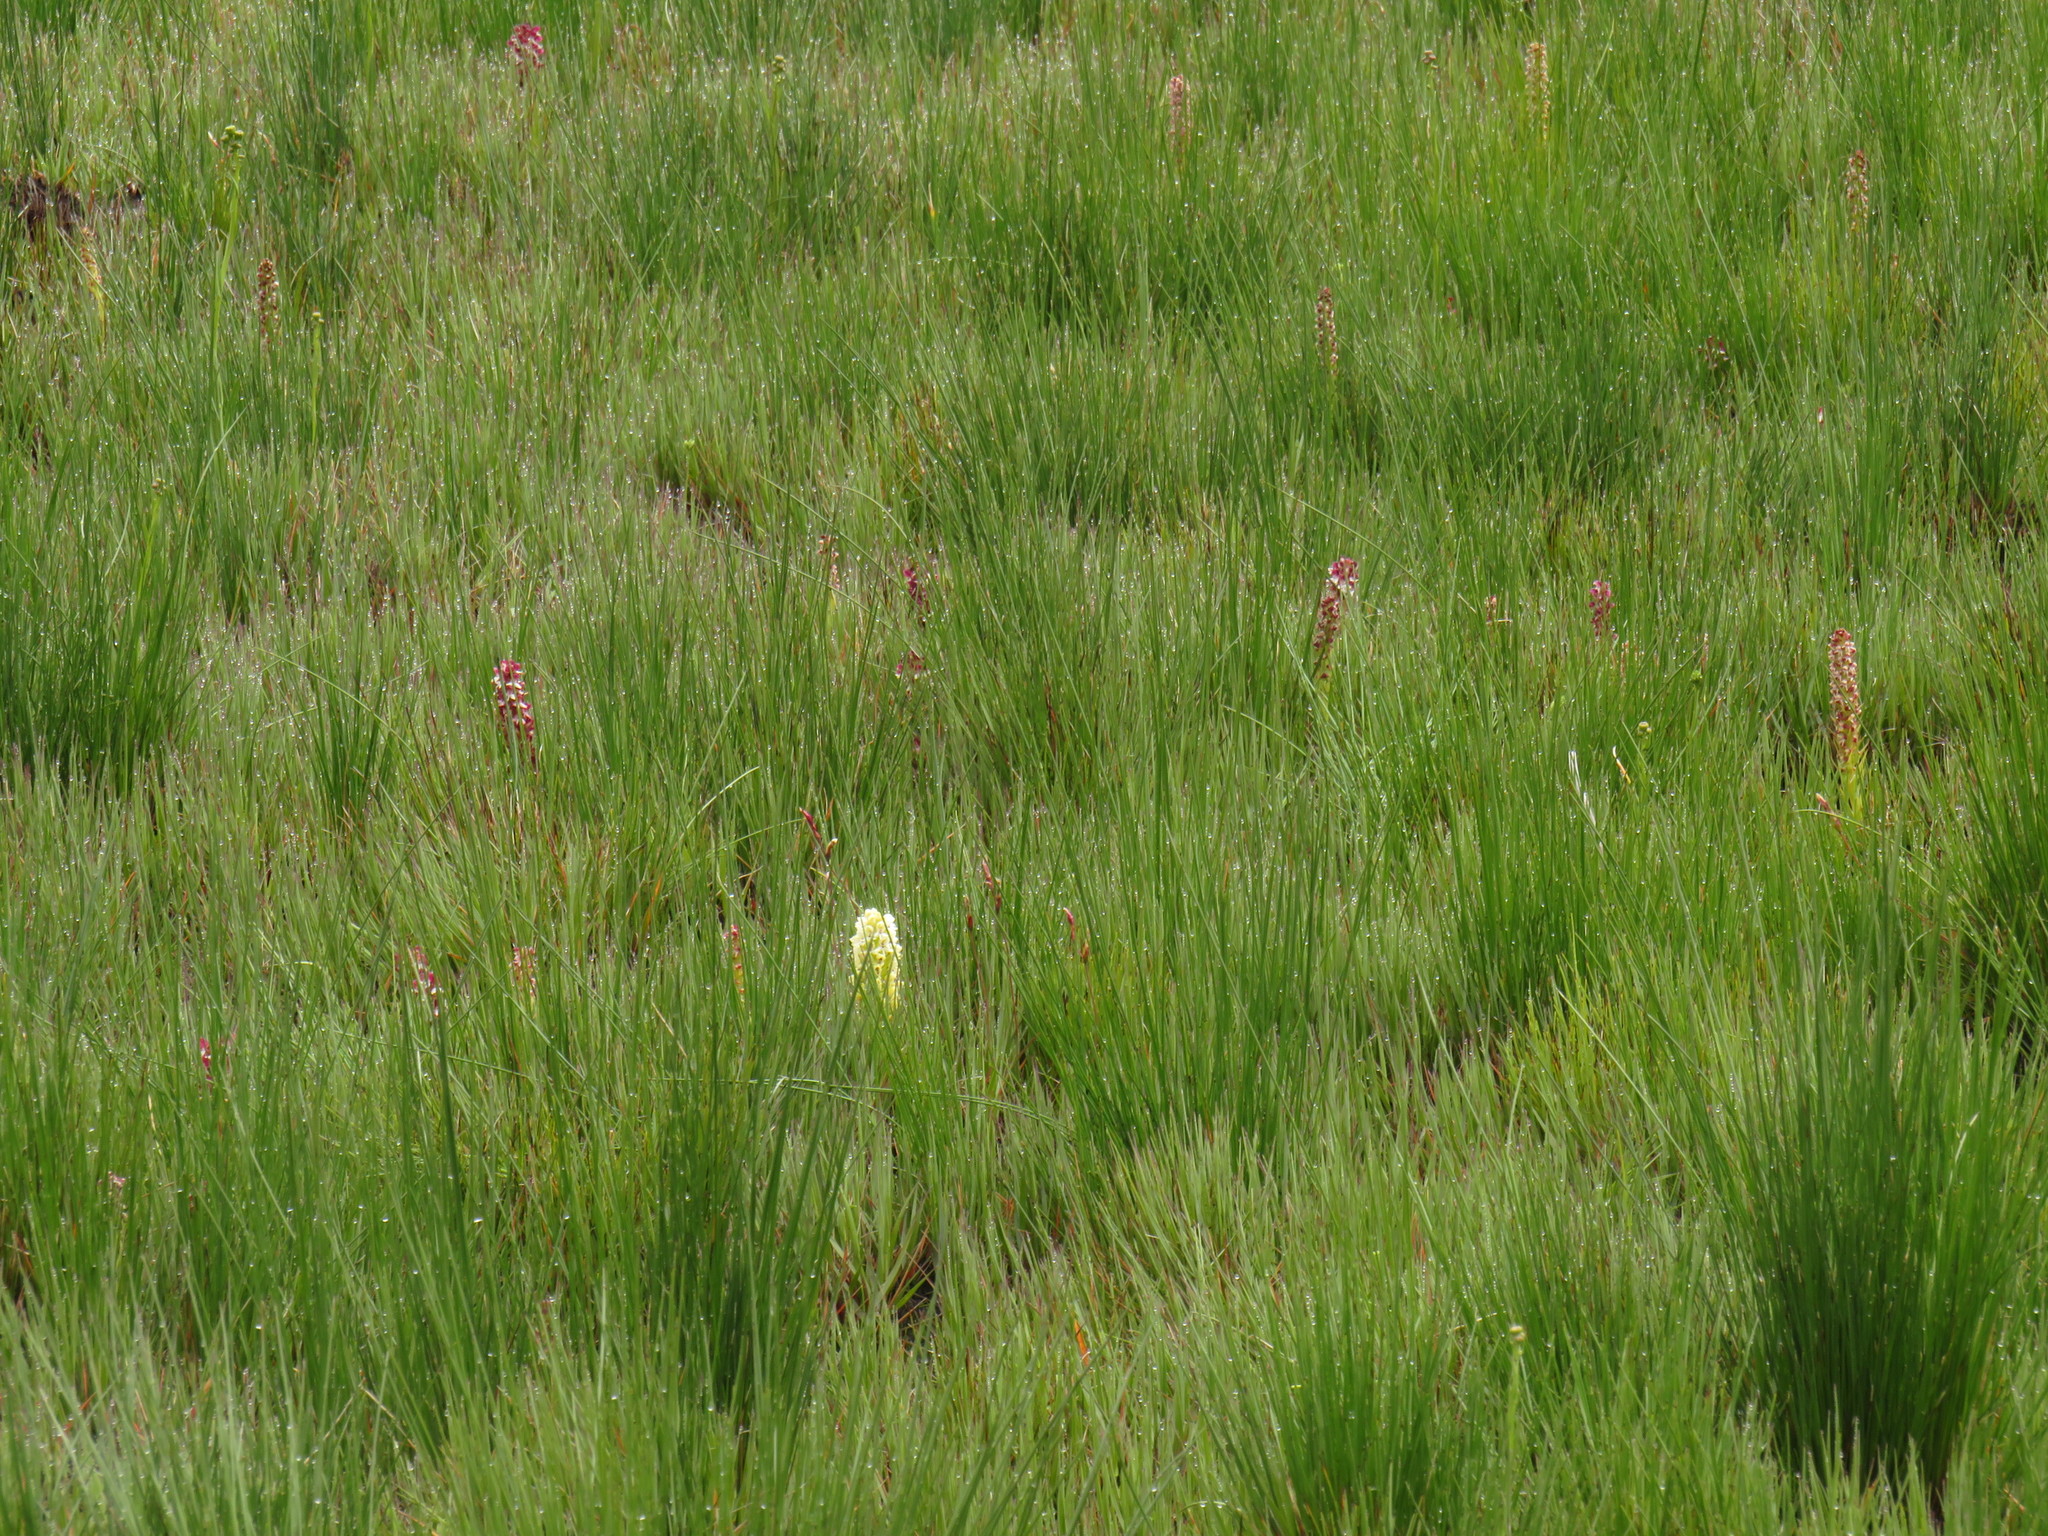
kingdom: Plantae
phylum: Tracheophyta
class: Liliopsida
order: Asparagales
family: Orchidaceae
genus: Disa
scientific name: Disa albomagentea
